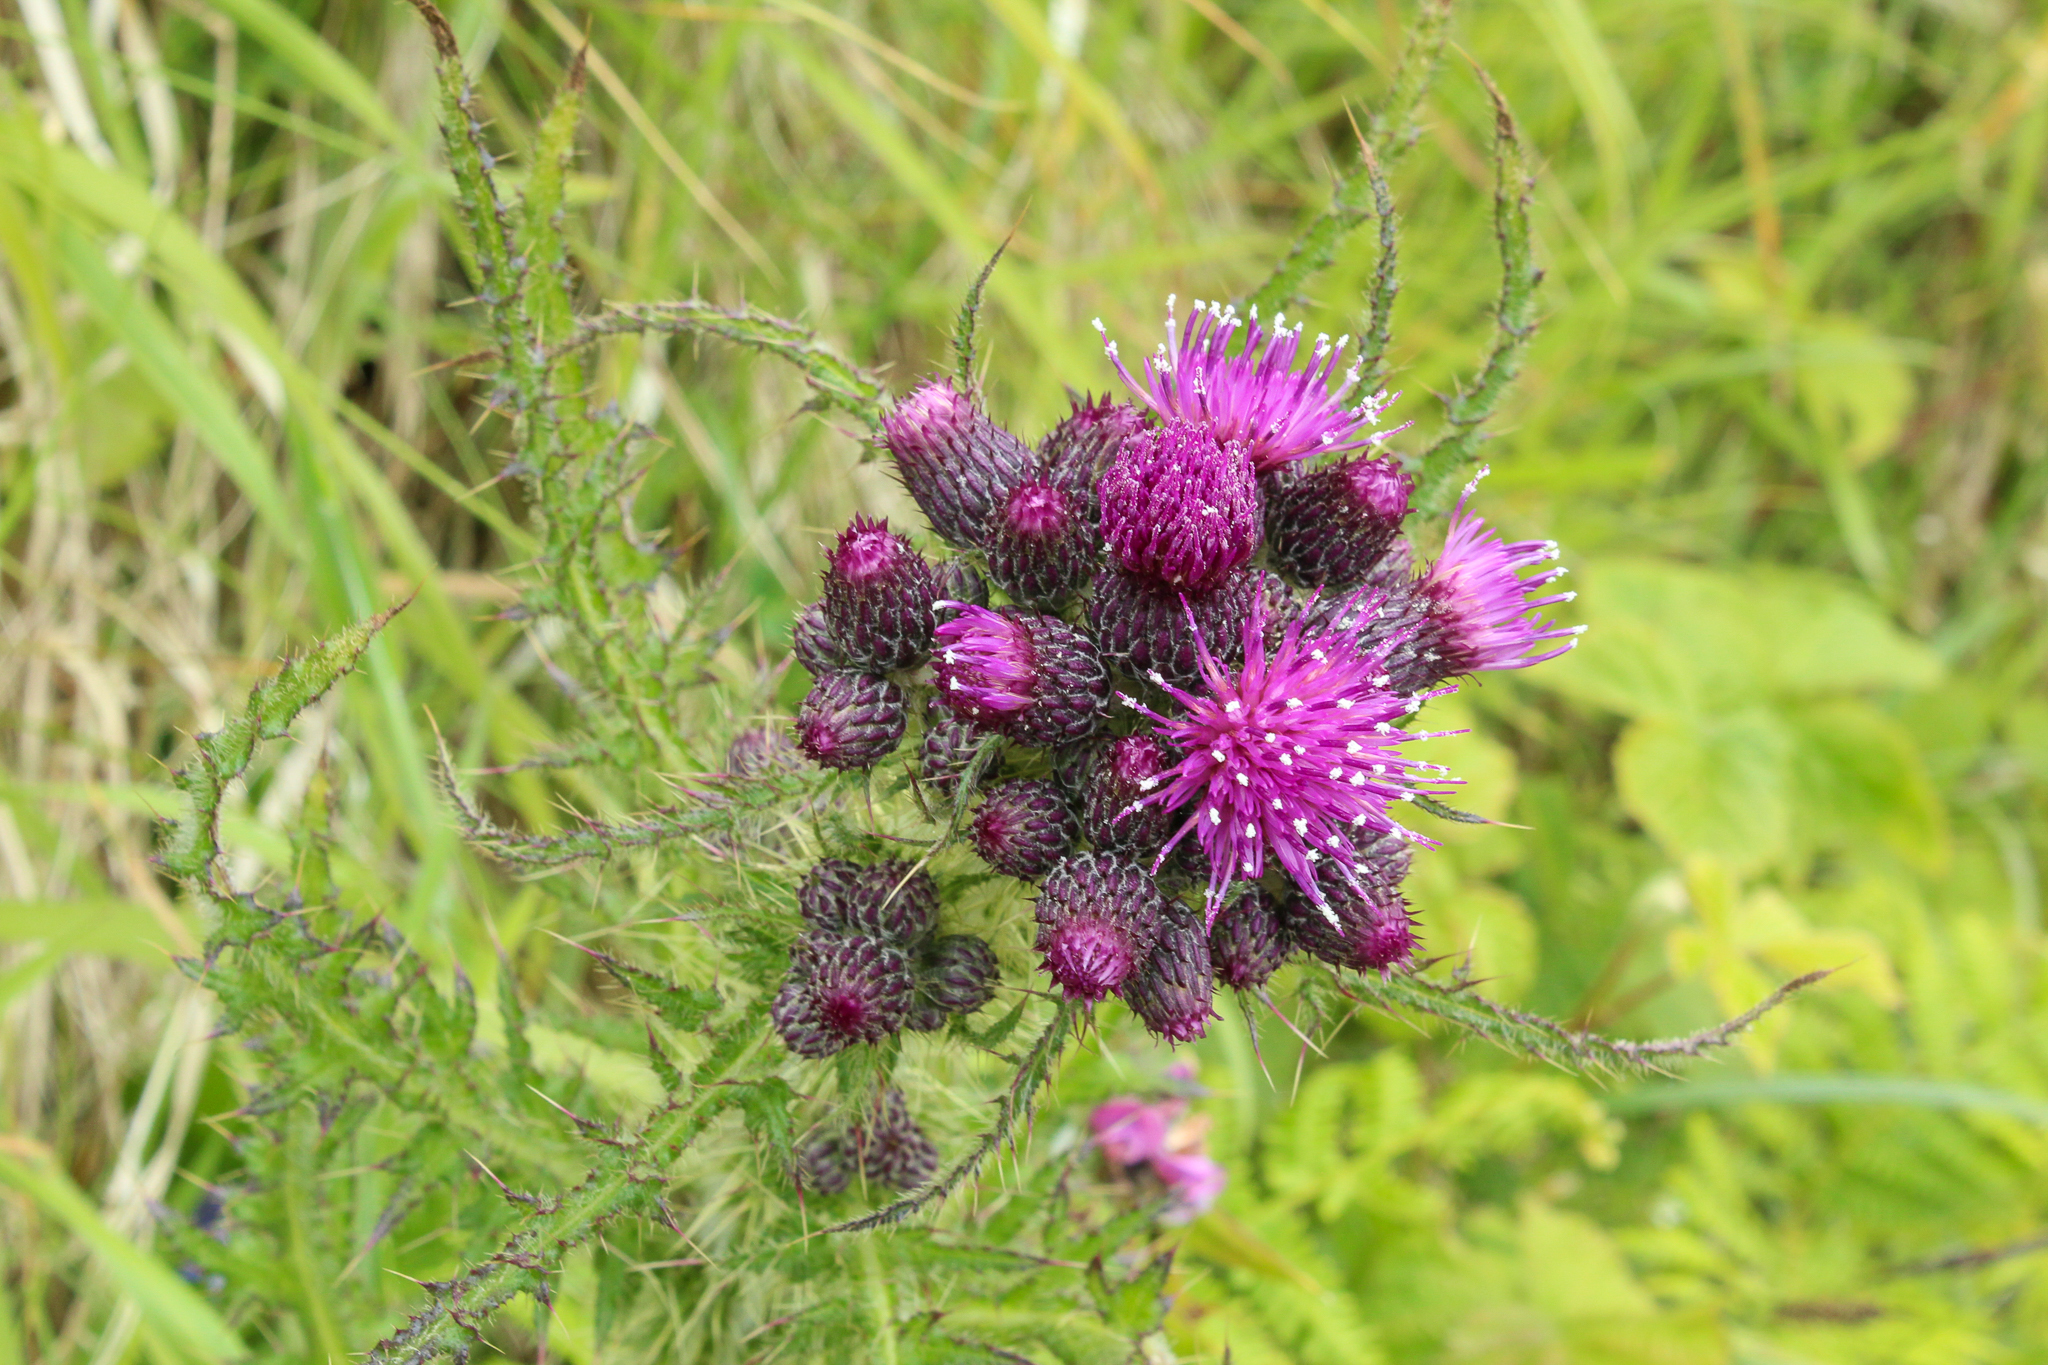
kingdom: Plantae
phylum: Tracheophyta
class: Magnoliopsida
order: Asterales
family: Asteraceae
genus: Cirsium
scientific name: Cirsium palustre
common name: Marsh thistle
